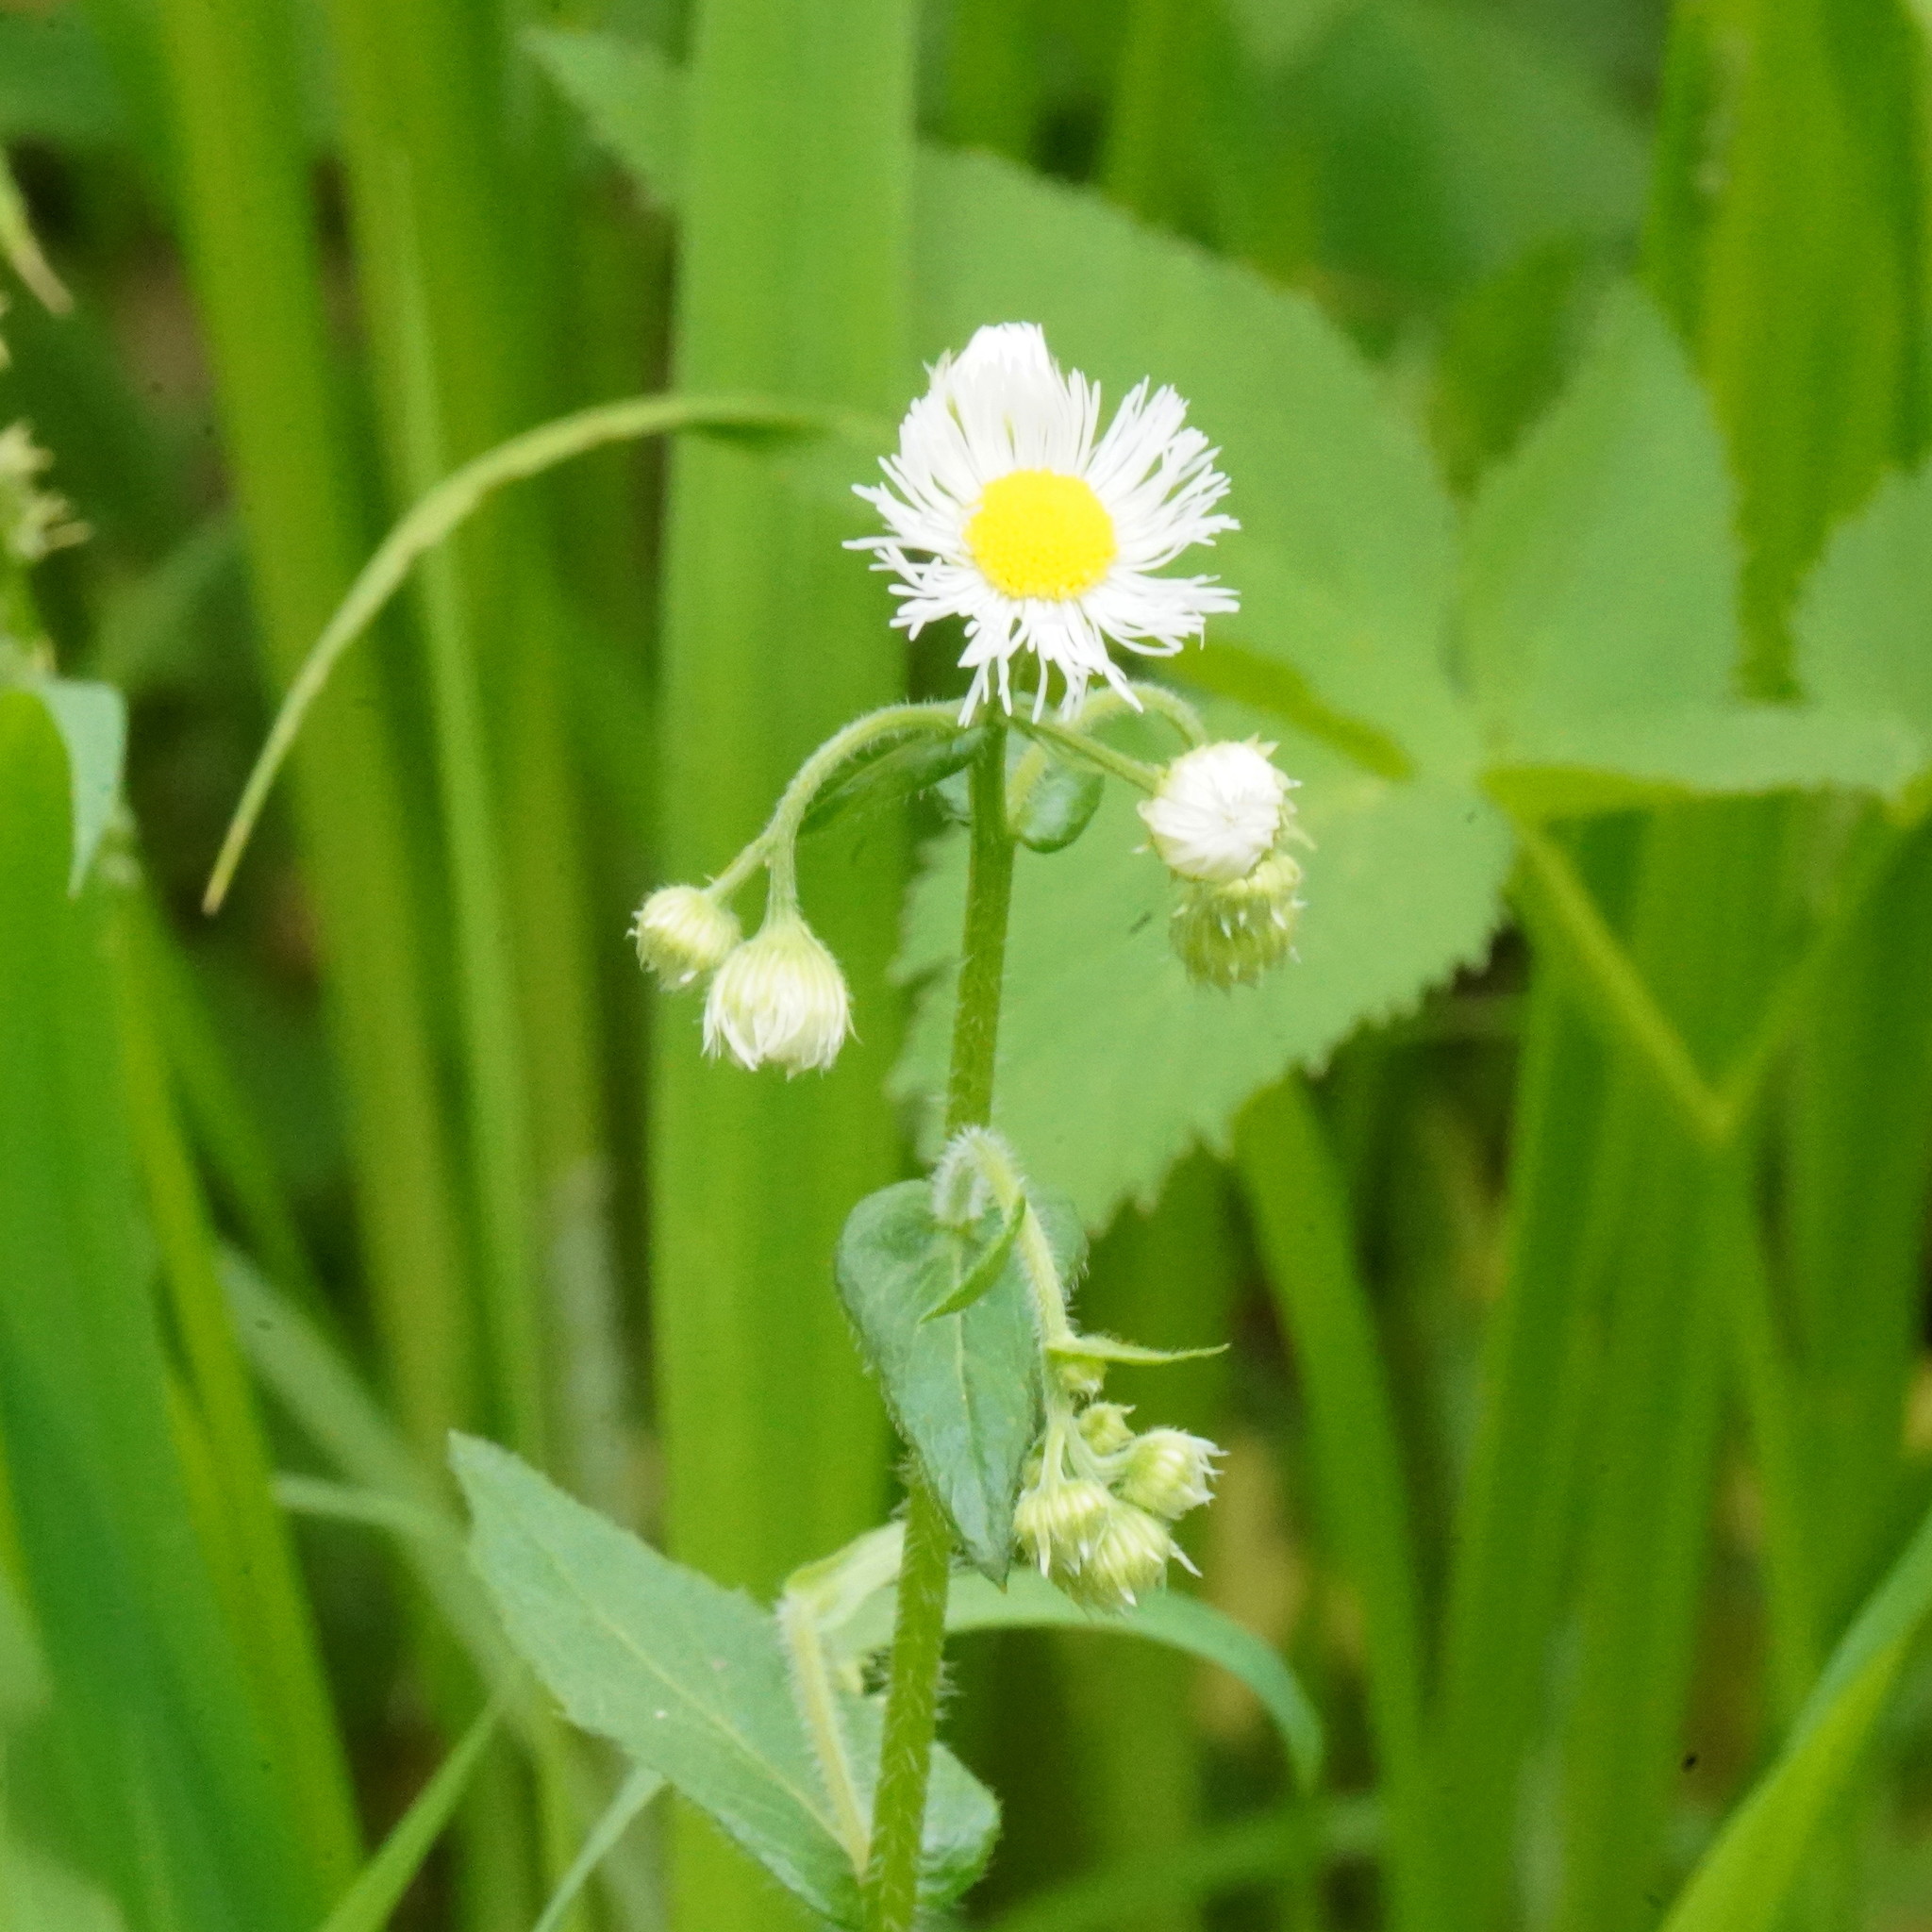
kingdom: Plantae
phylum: Tracheophyta
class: Magnoliopsida
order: Asterales
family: Asteraceae
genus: Erigeron
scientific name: Erigeron philadelphicus
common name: Robin's-plantain
